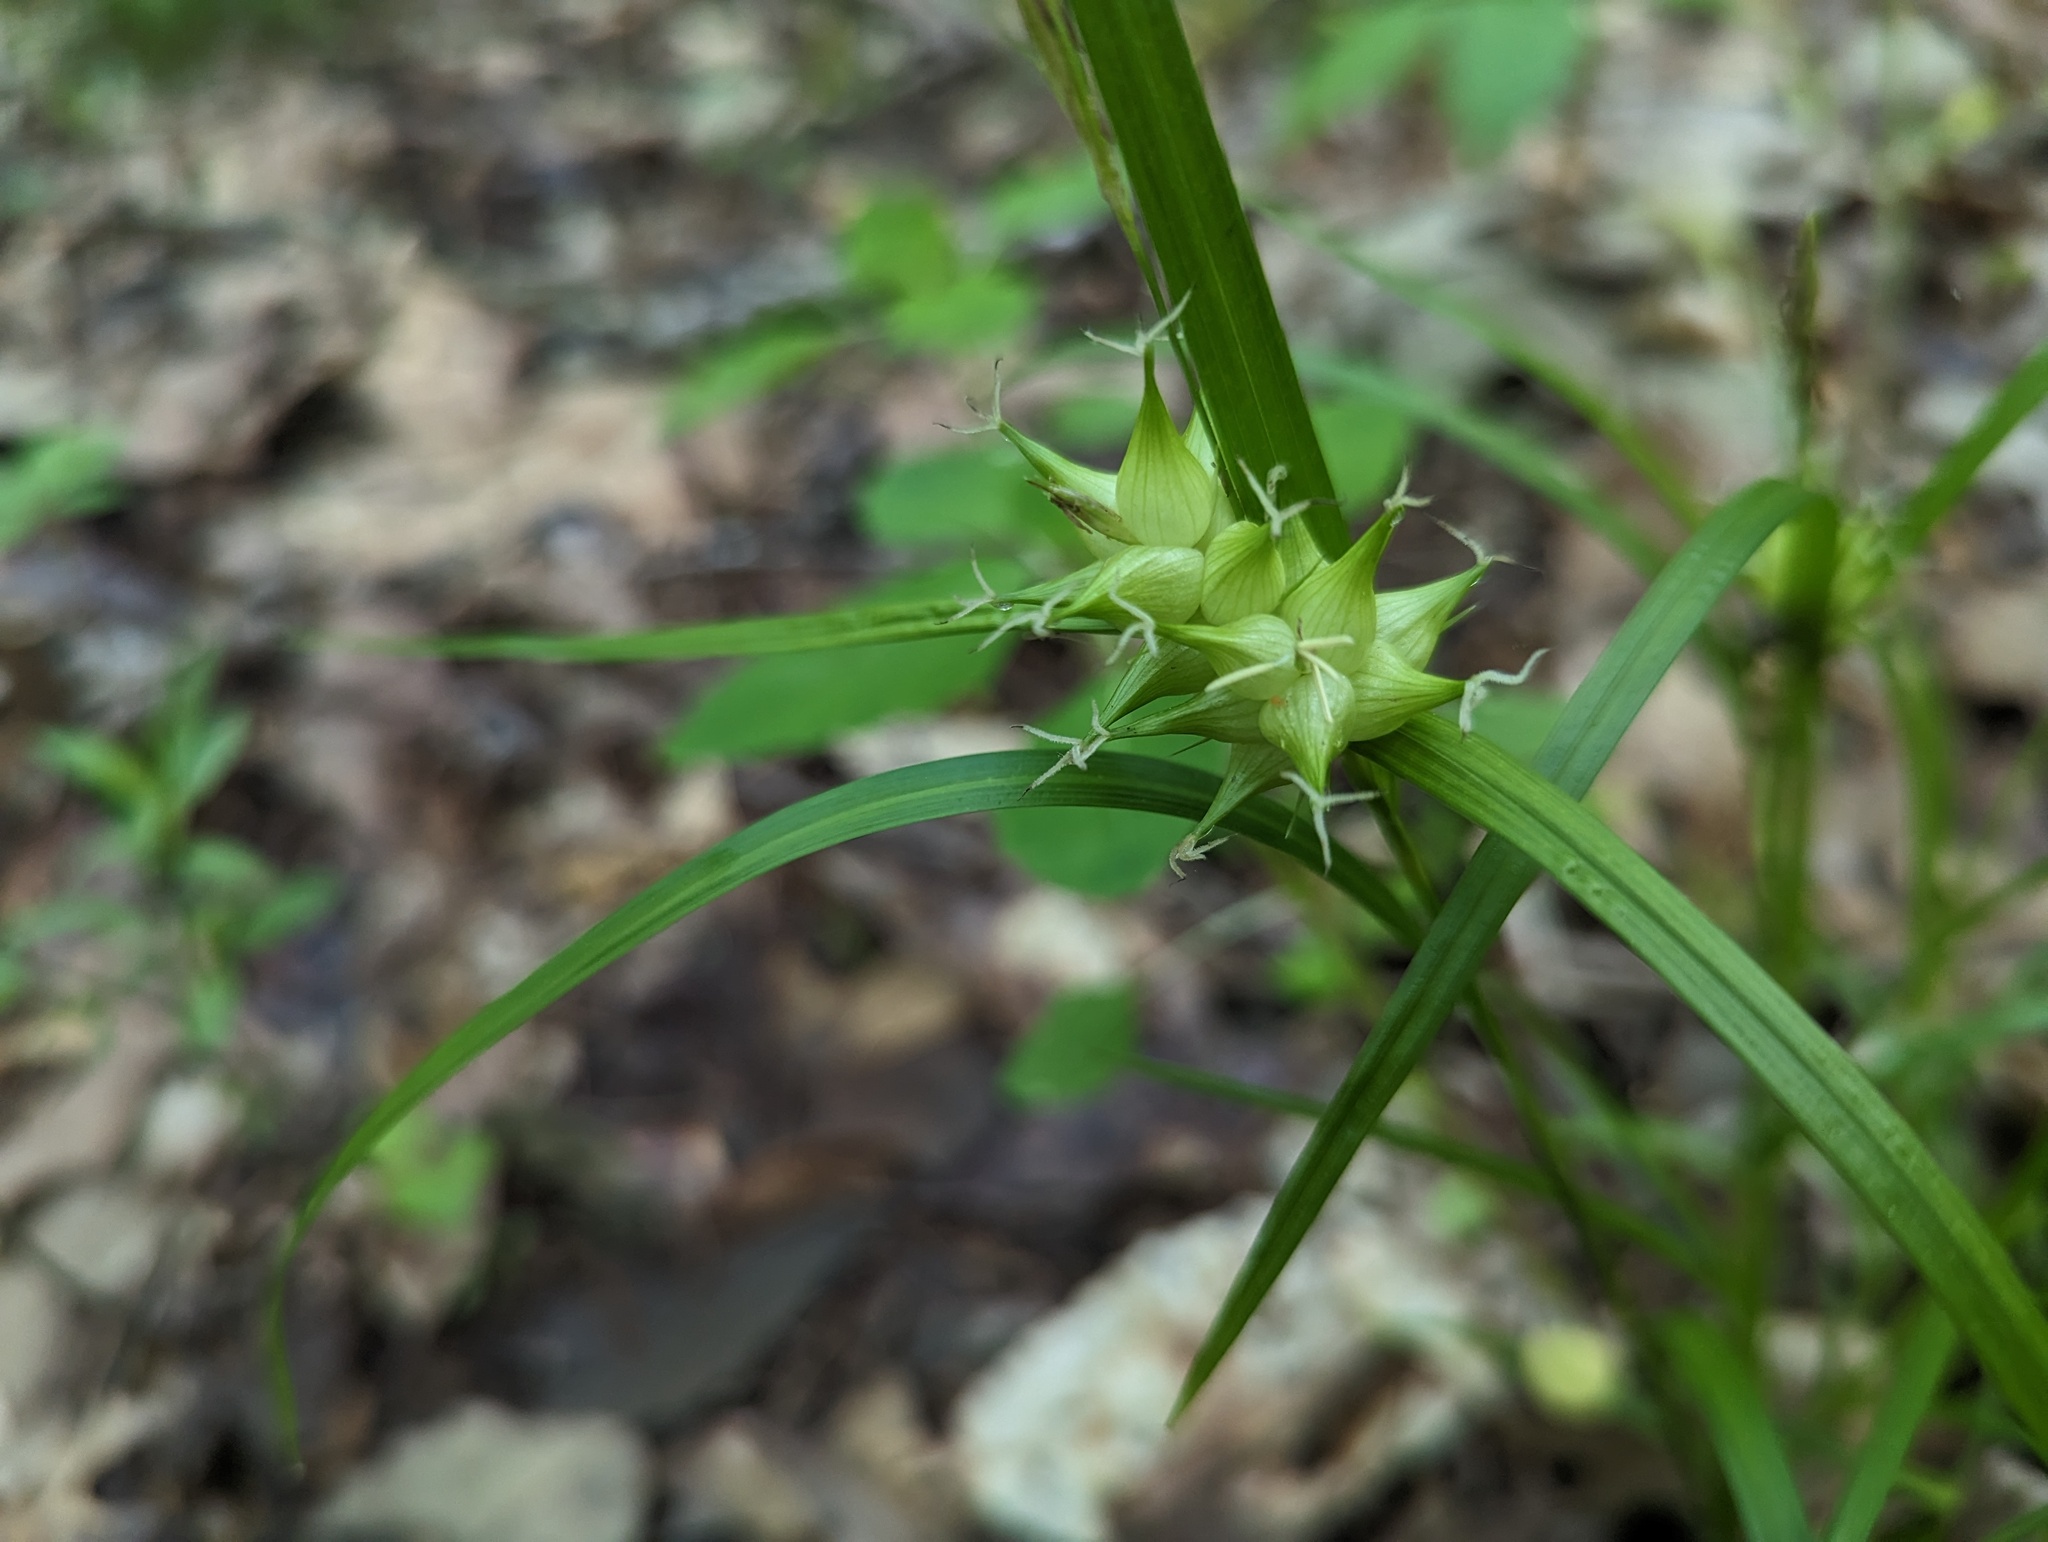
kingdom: Plantae
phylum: Tracheophyta
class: Liliopsida
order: Poales
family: Cyperaceae
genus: Carex
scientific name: Carex intumescens
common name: Greater bladder sedge
